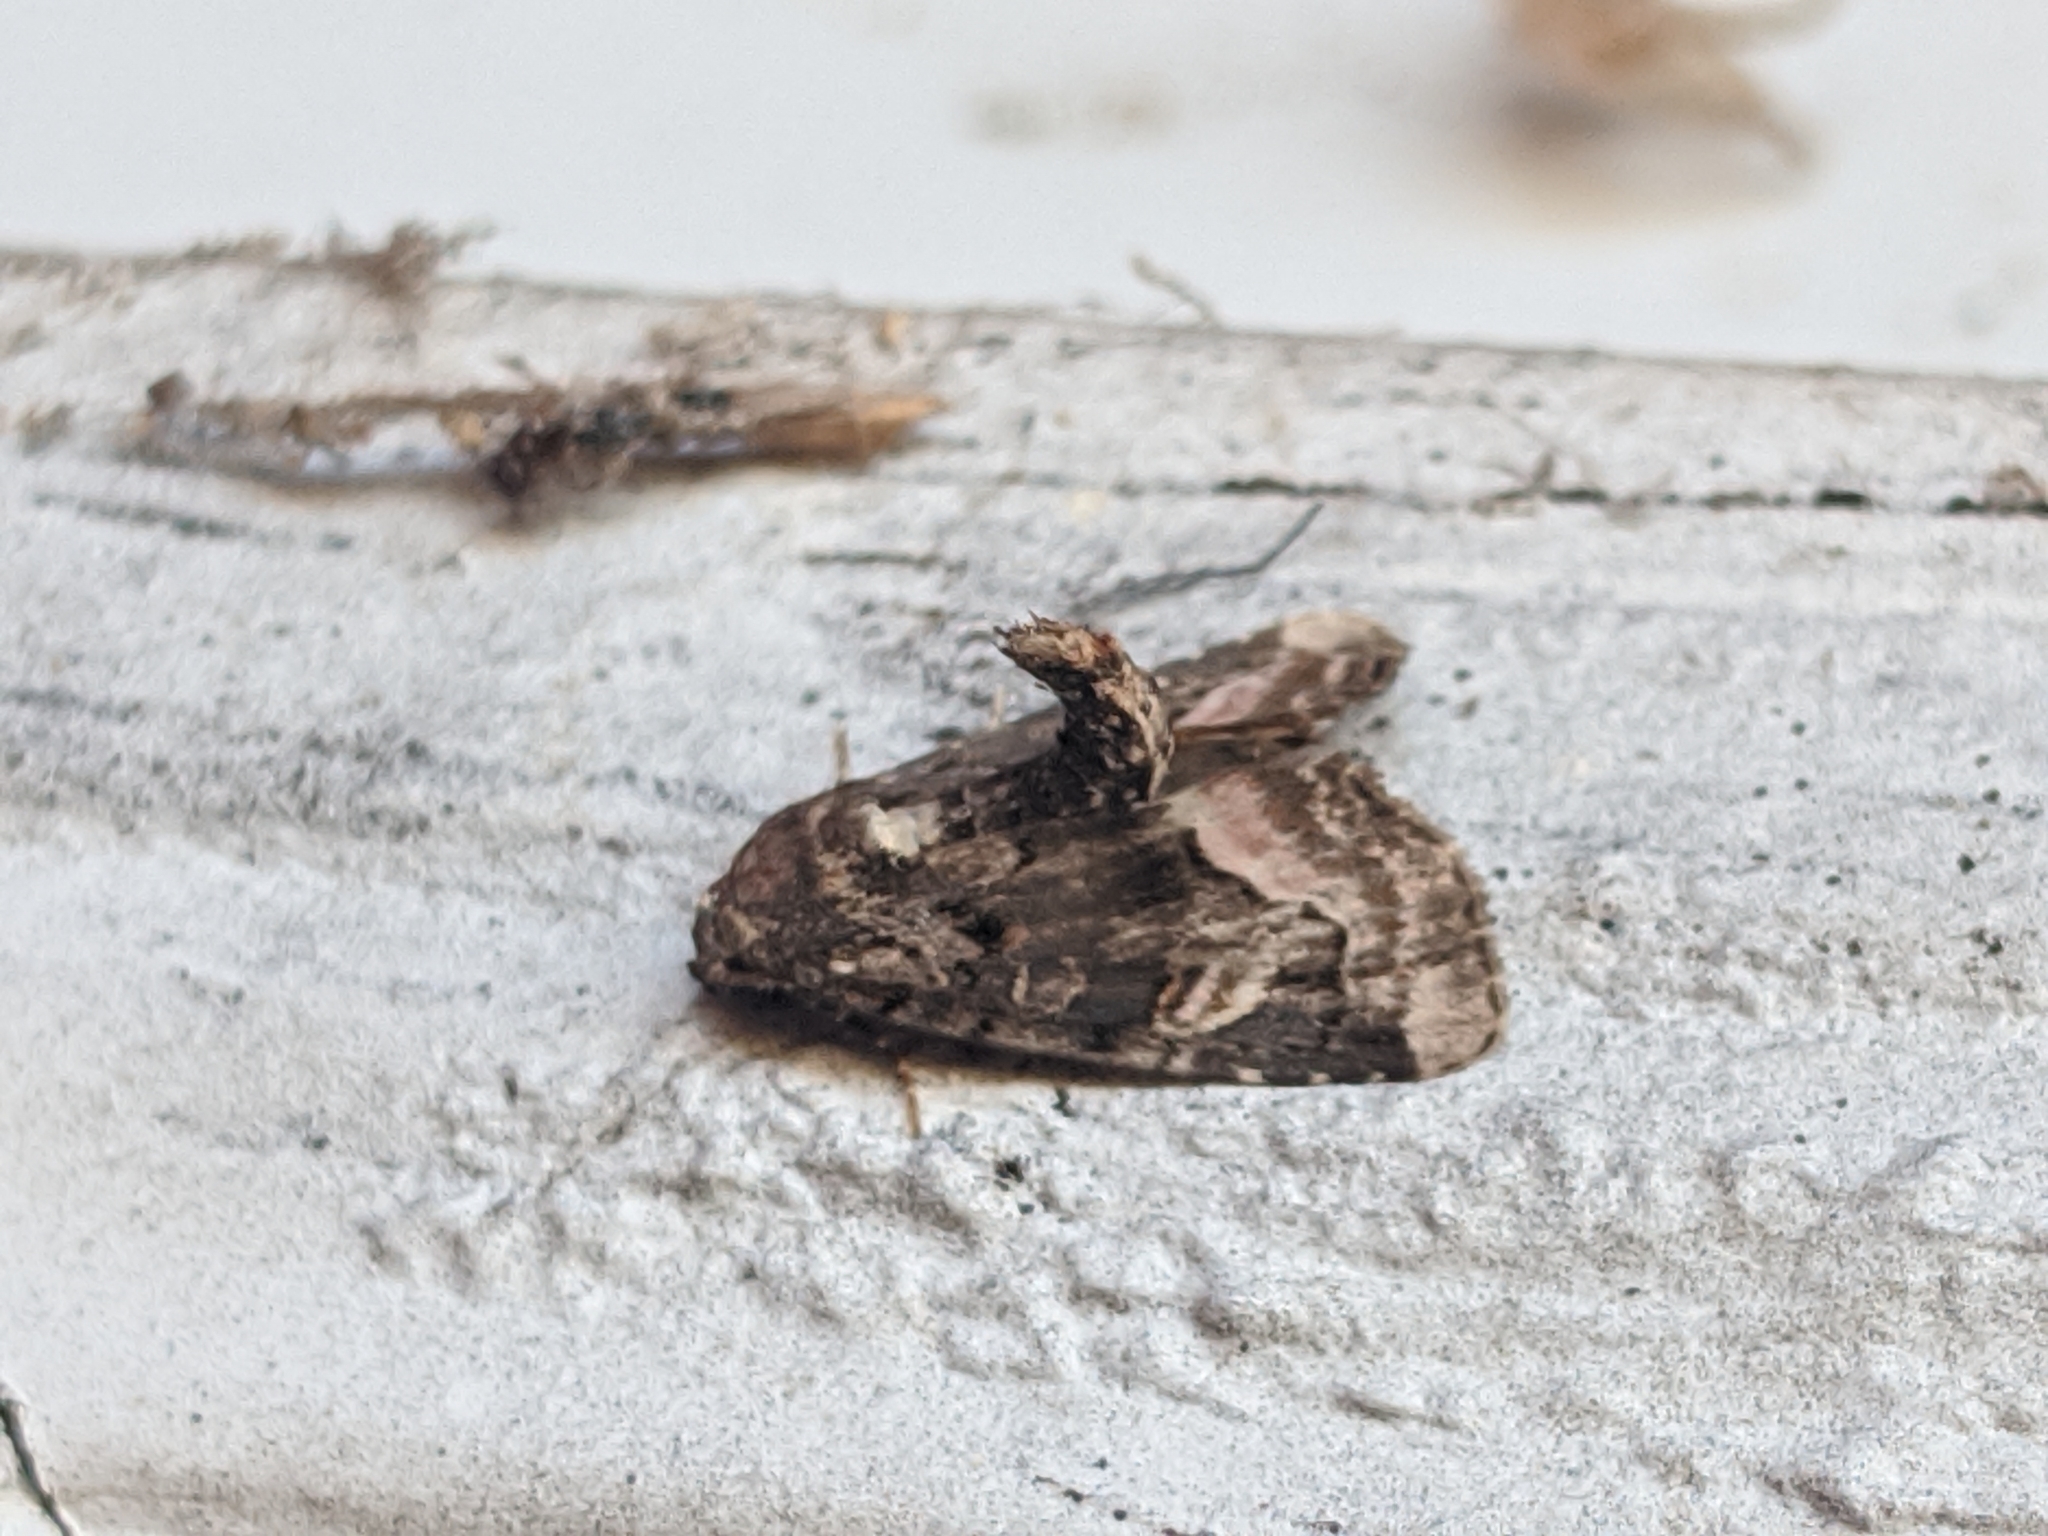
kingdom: Animalia
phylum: Arthropoda
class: Insecta
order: Lepidoptera
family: Noctuidae
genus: Homophoberia
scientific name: Homophoberia apicosa
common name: Black wedge-spot
